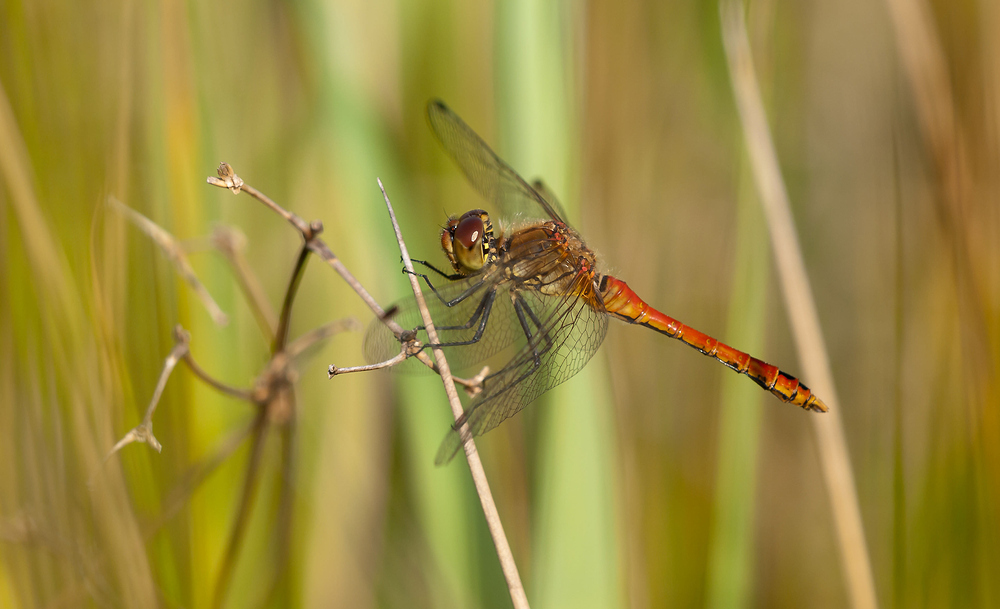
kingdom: Animalia
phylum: Arthropoda
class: Insecta
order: Odonata
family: Libellulidae
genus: Sympetrum
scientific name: Sympetrum sanguineum
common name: Ruddy darter
